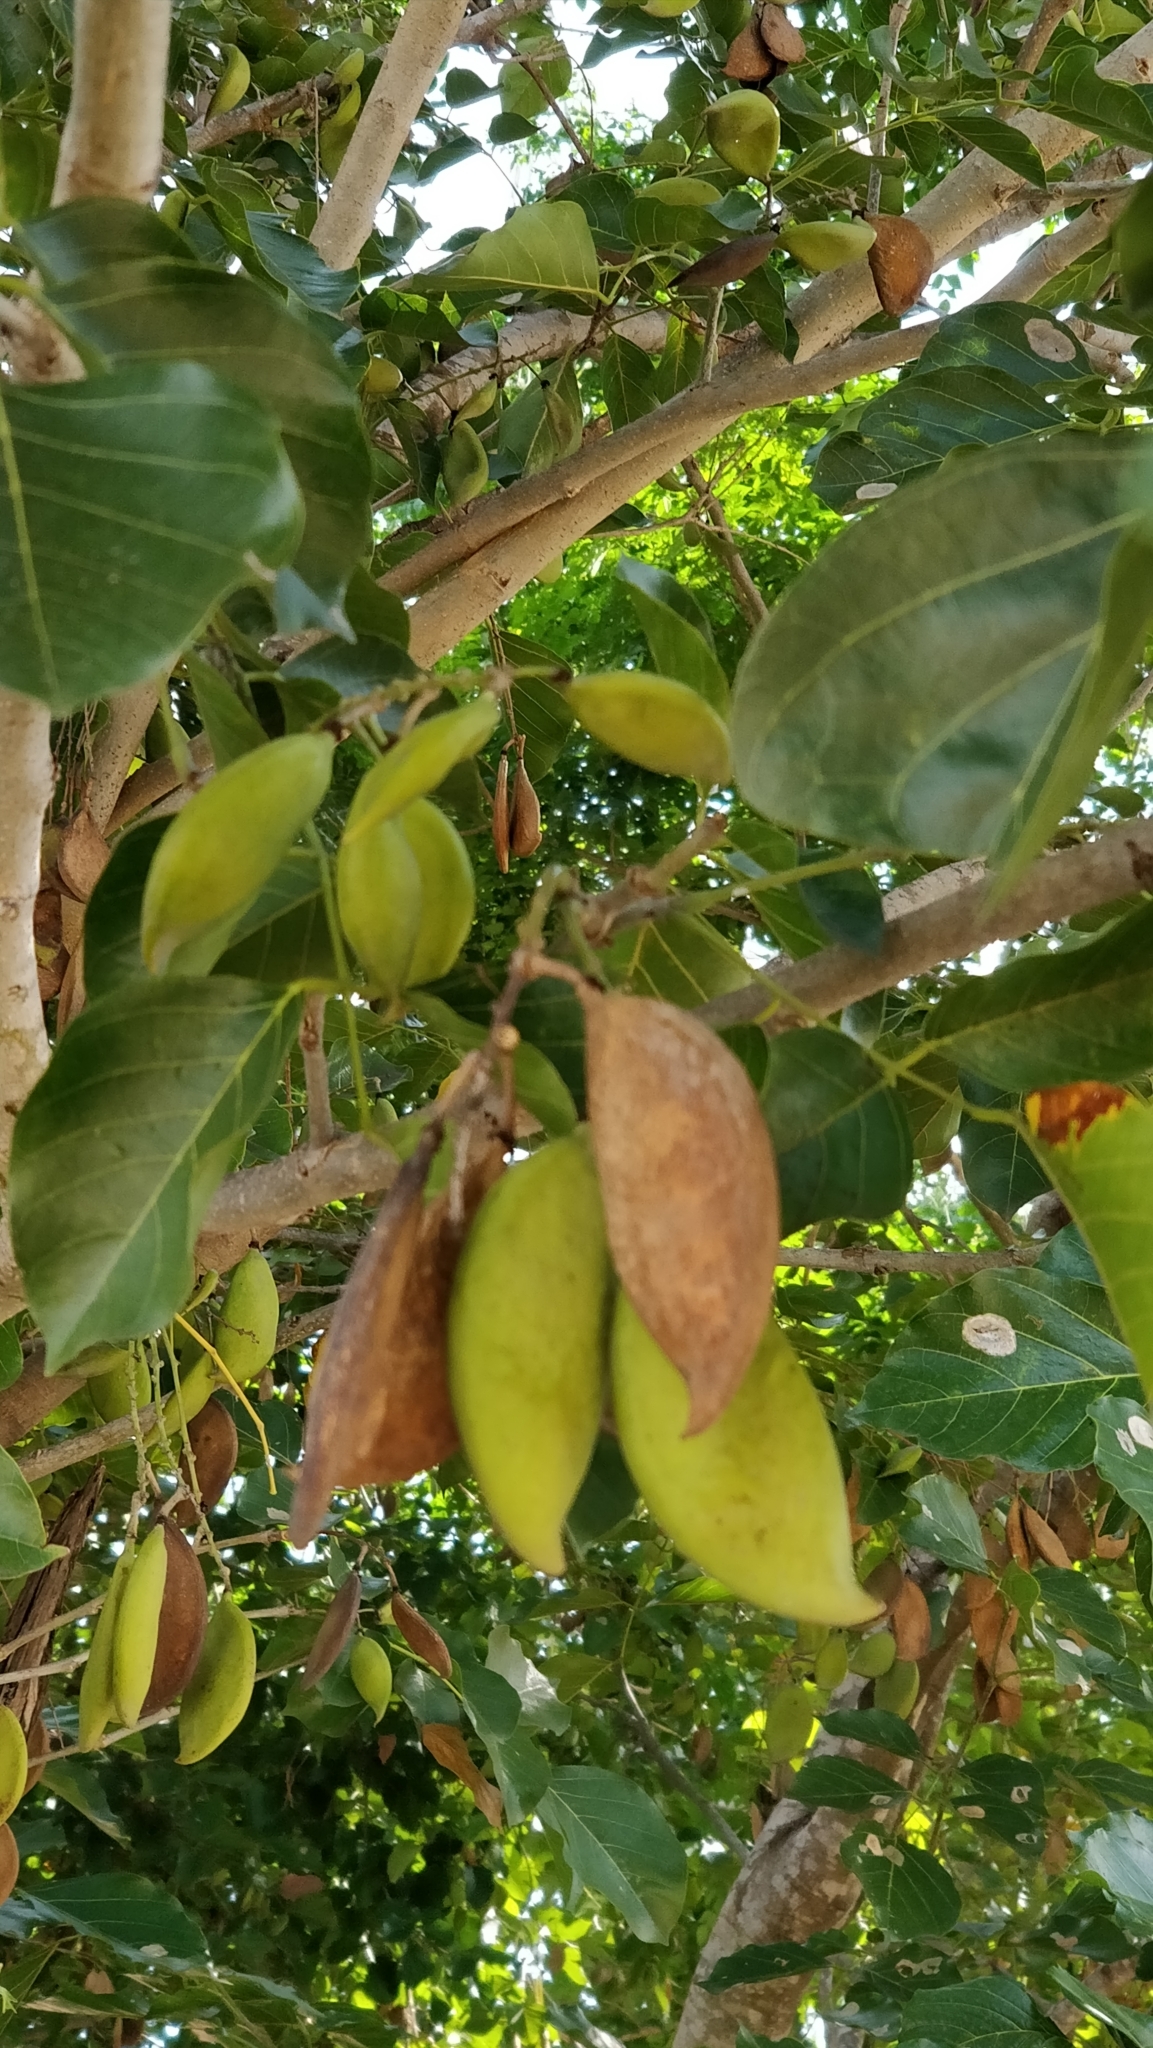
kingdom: Plantae
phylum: Tracheophyta
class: Magnoliopsida
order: Fabales
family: Fabaceae
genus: Pongamia
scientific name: Pongamia pinnata
